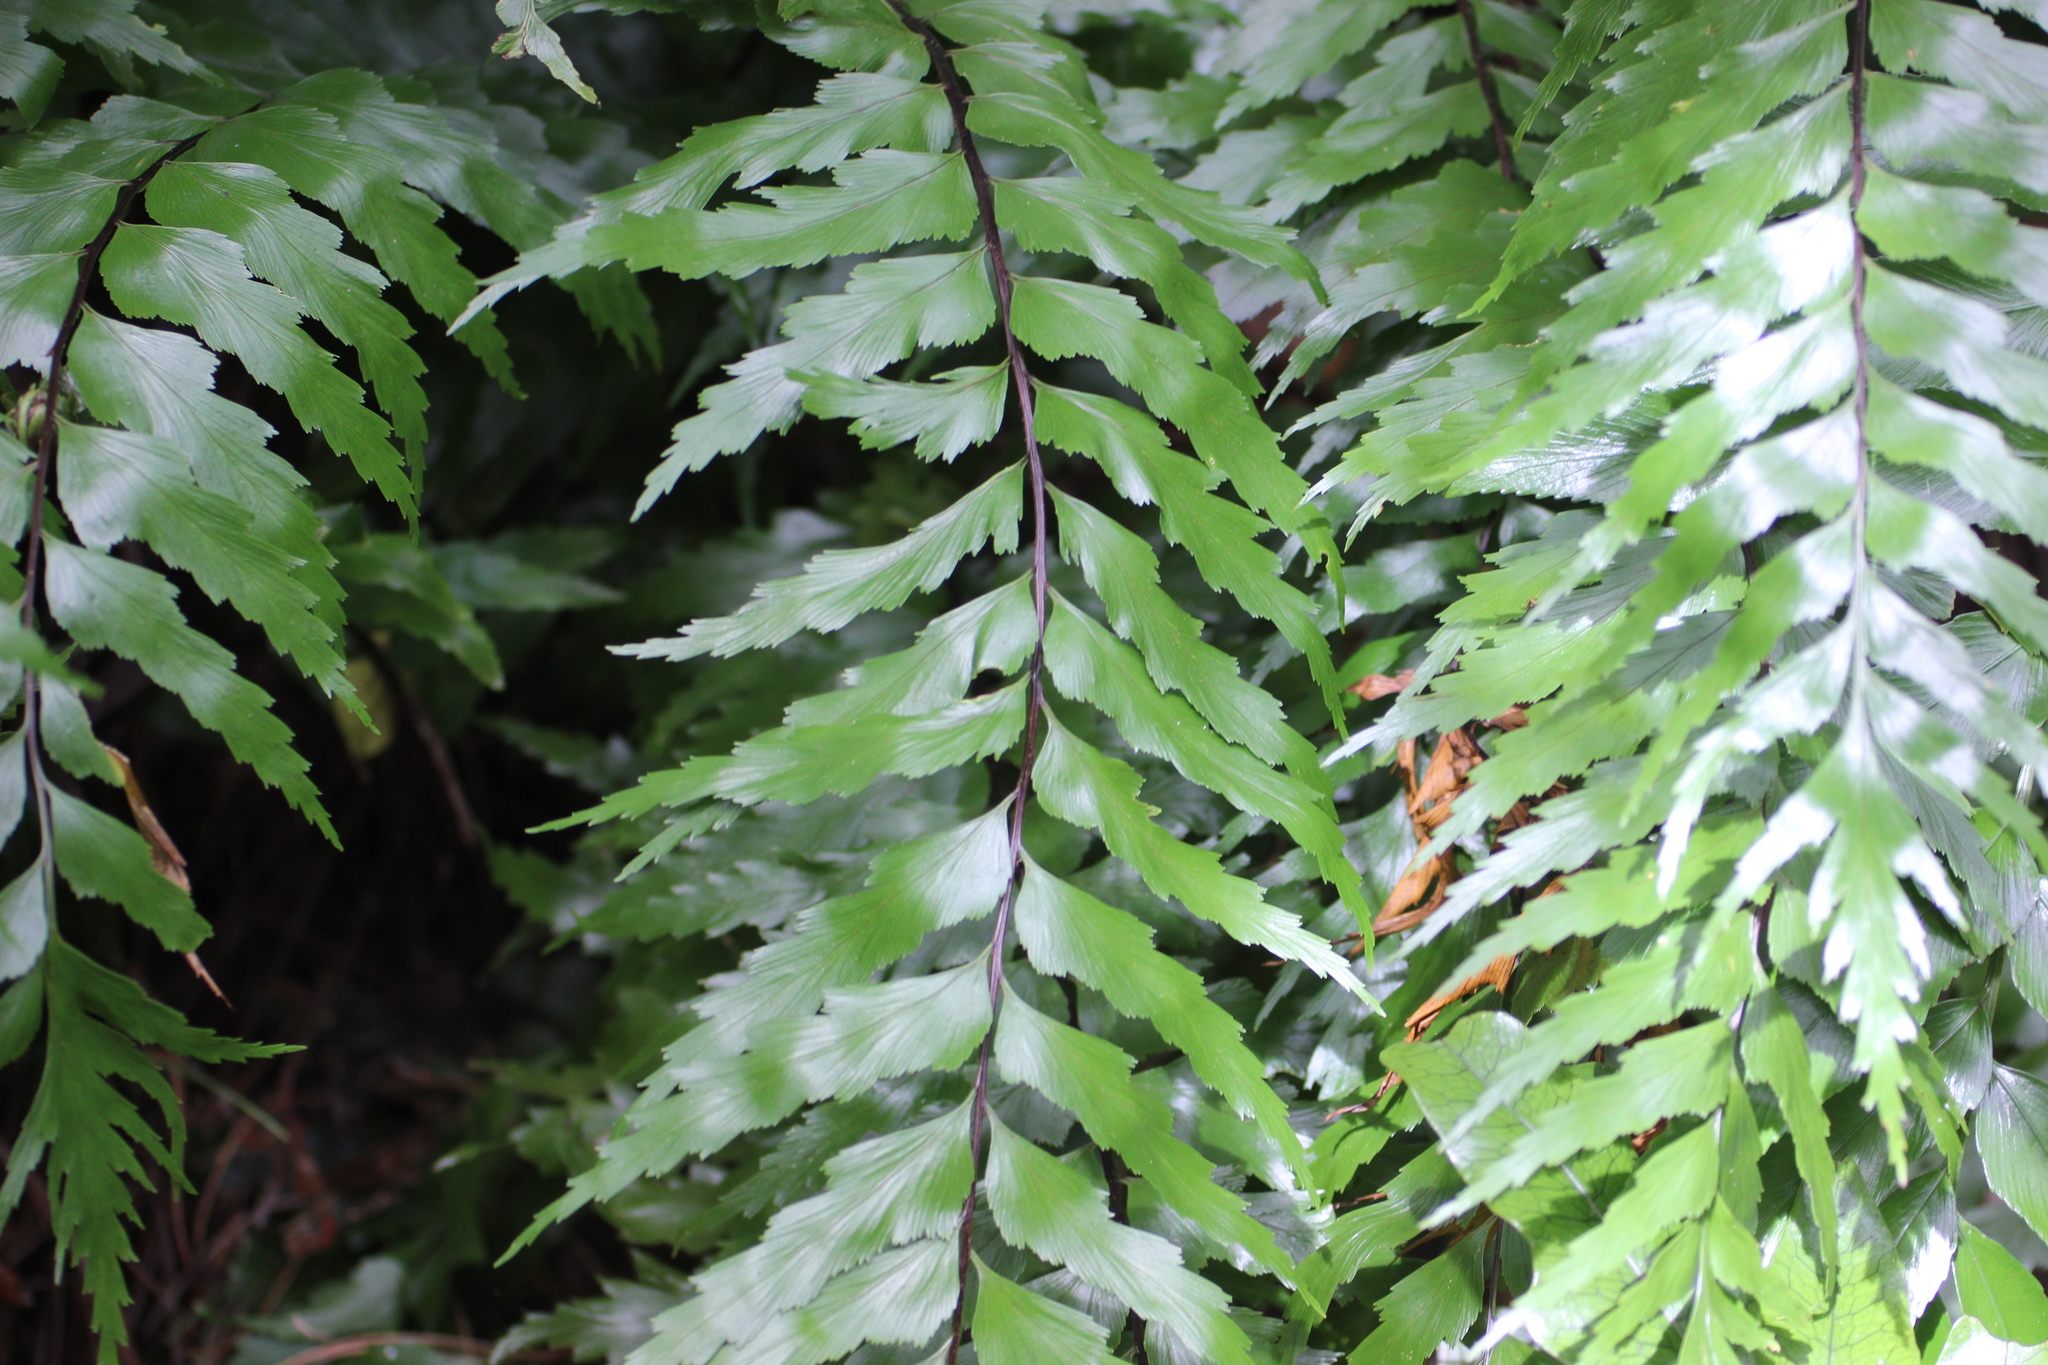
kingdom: Plantae
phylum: Tracheophyta
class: Polypodiopsida
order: Polypodiales
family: Aspleniaceae
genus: Asplenium
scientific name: Asplenium polyodon
